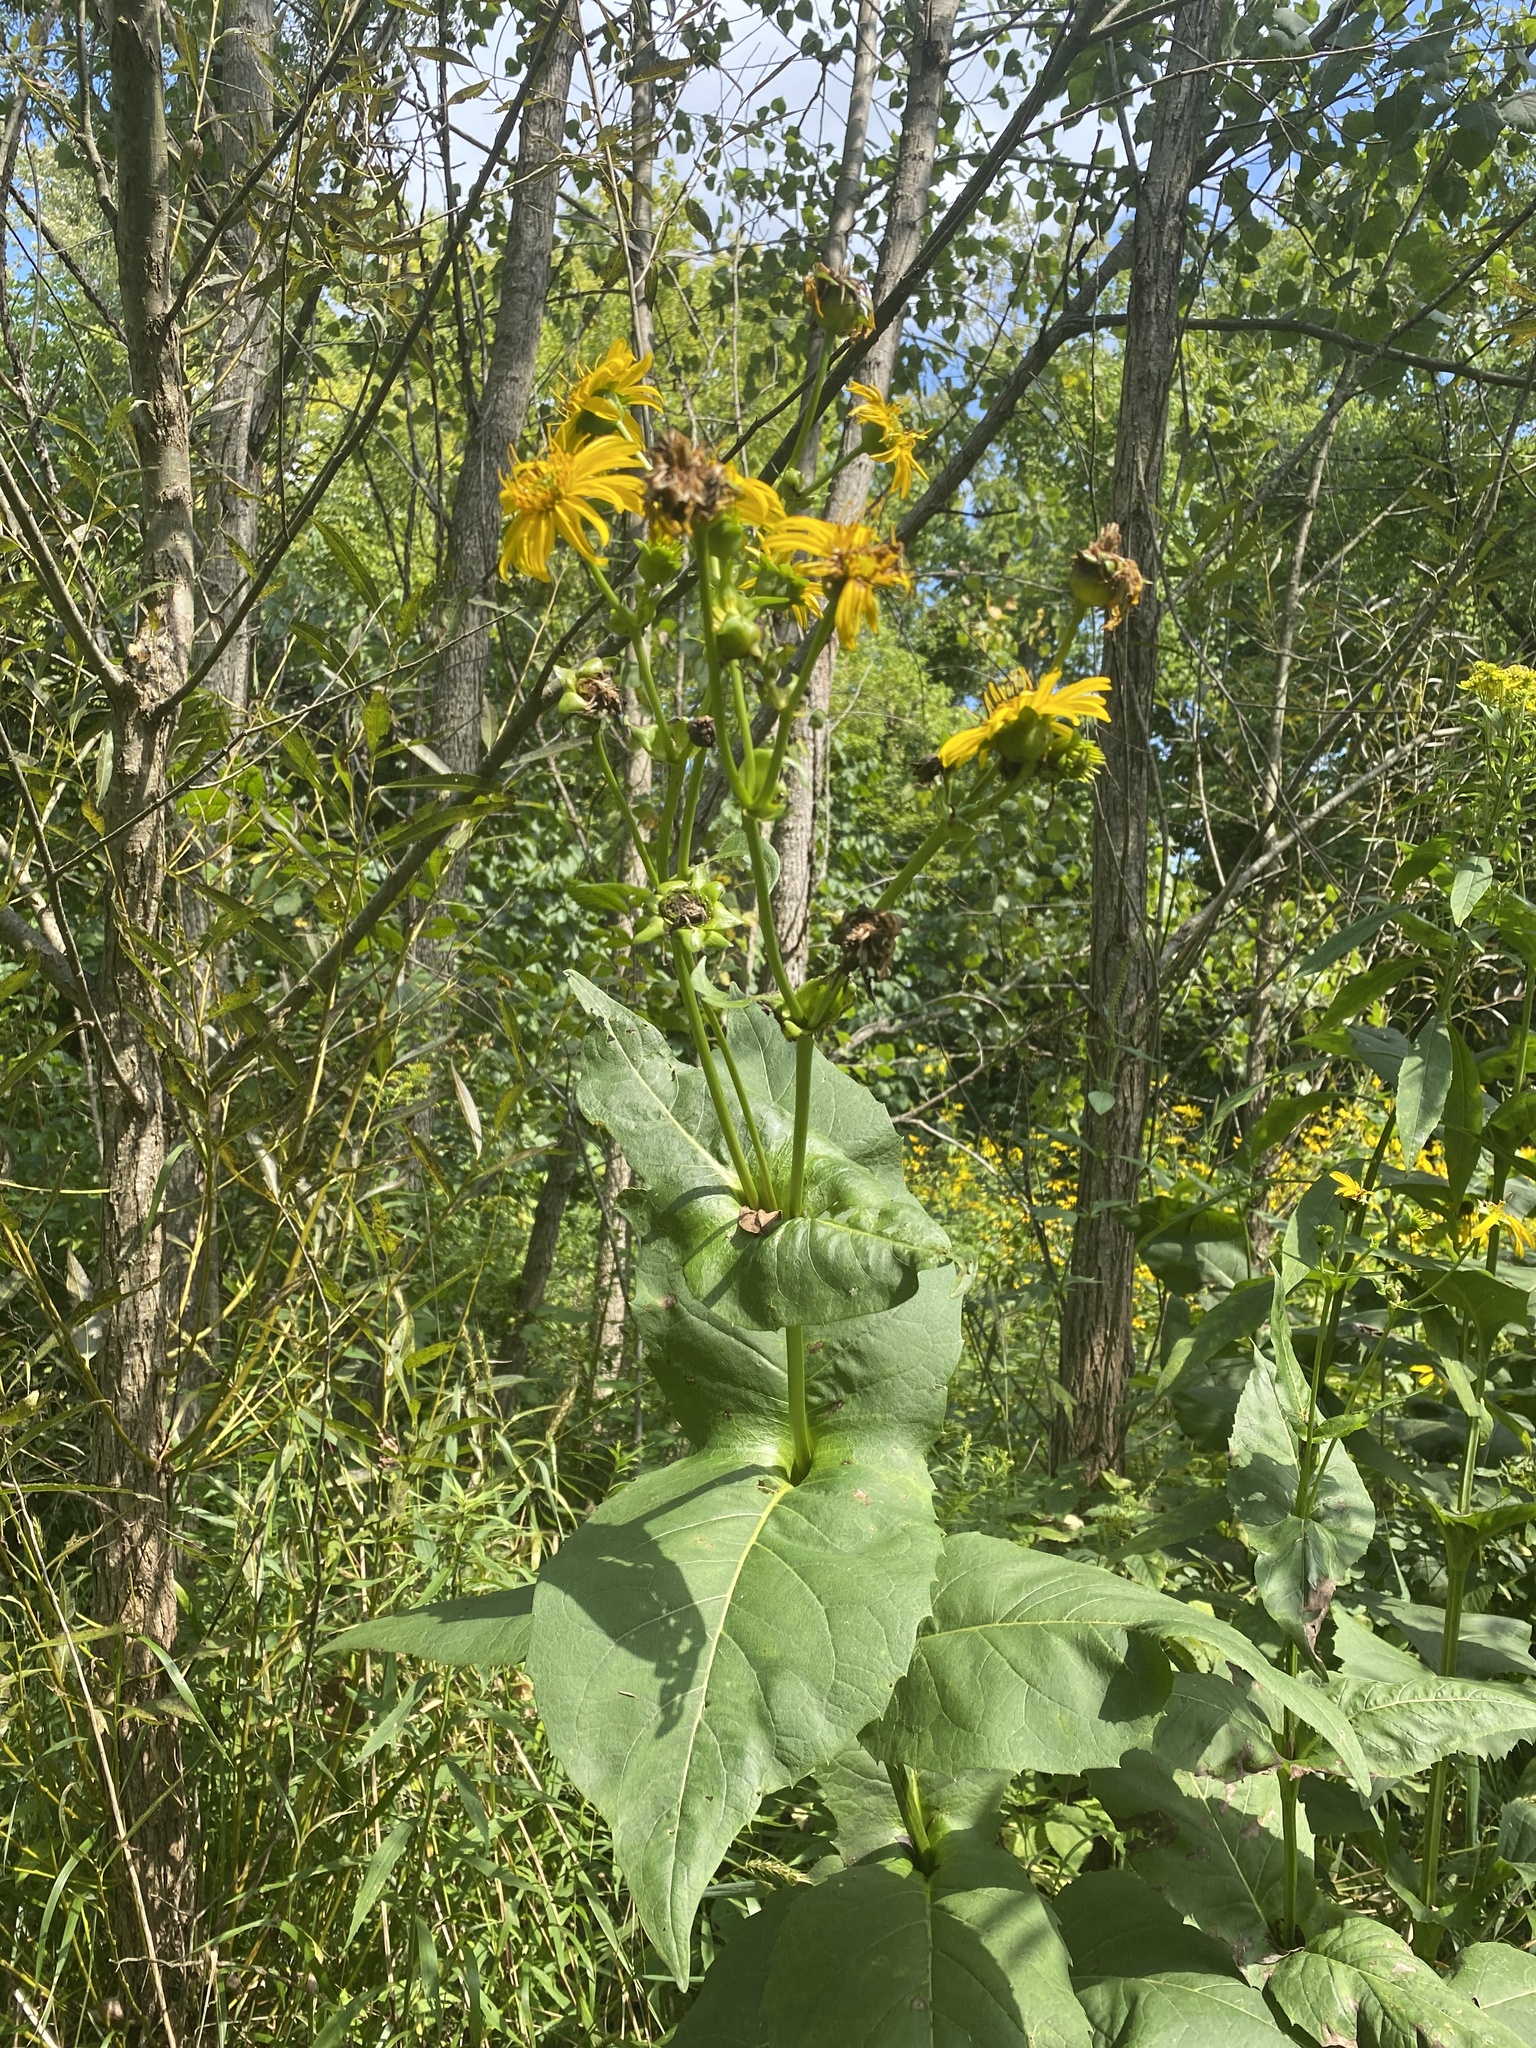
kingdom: Plantae
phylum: Tracheophyta
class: Magnoliopsida
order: Asterales
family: Asteraceae
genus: Silphium
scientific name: Silphium perfoliatum
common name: Cup-plant
